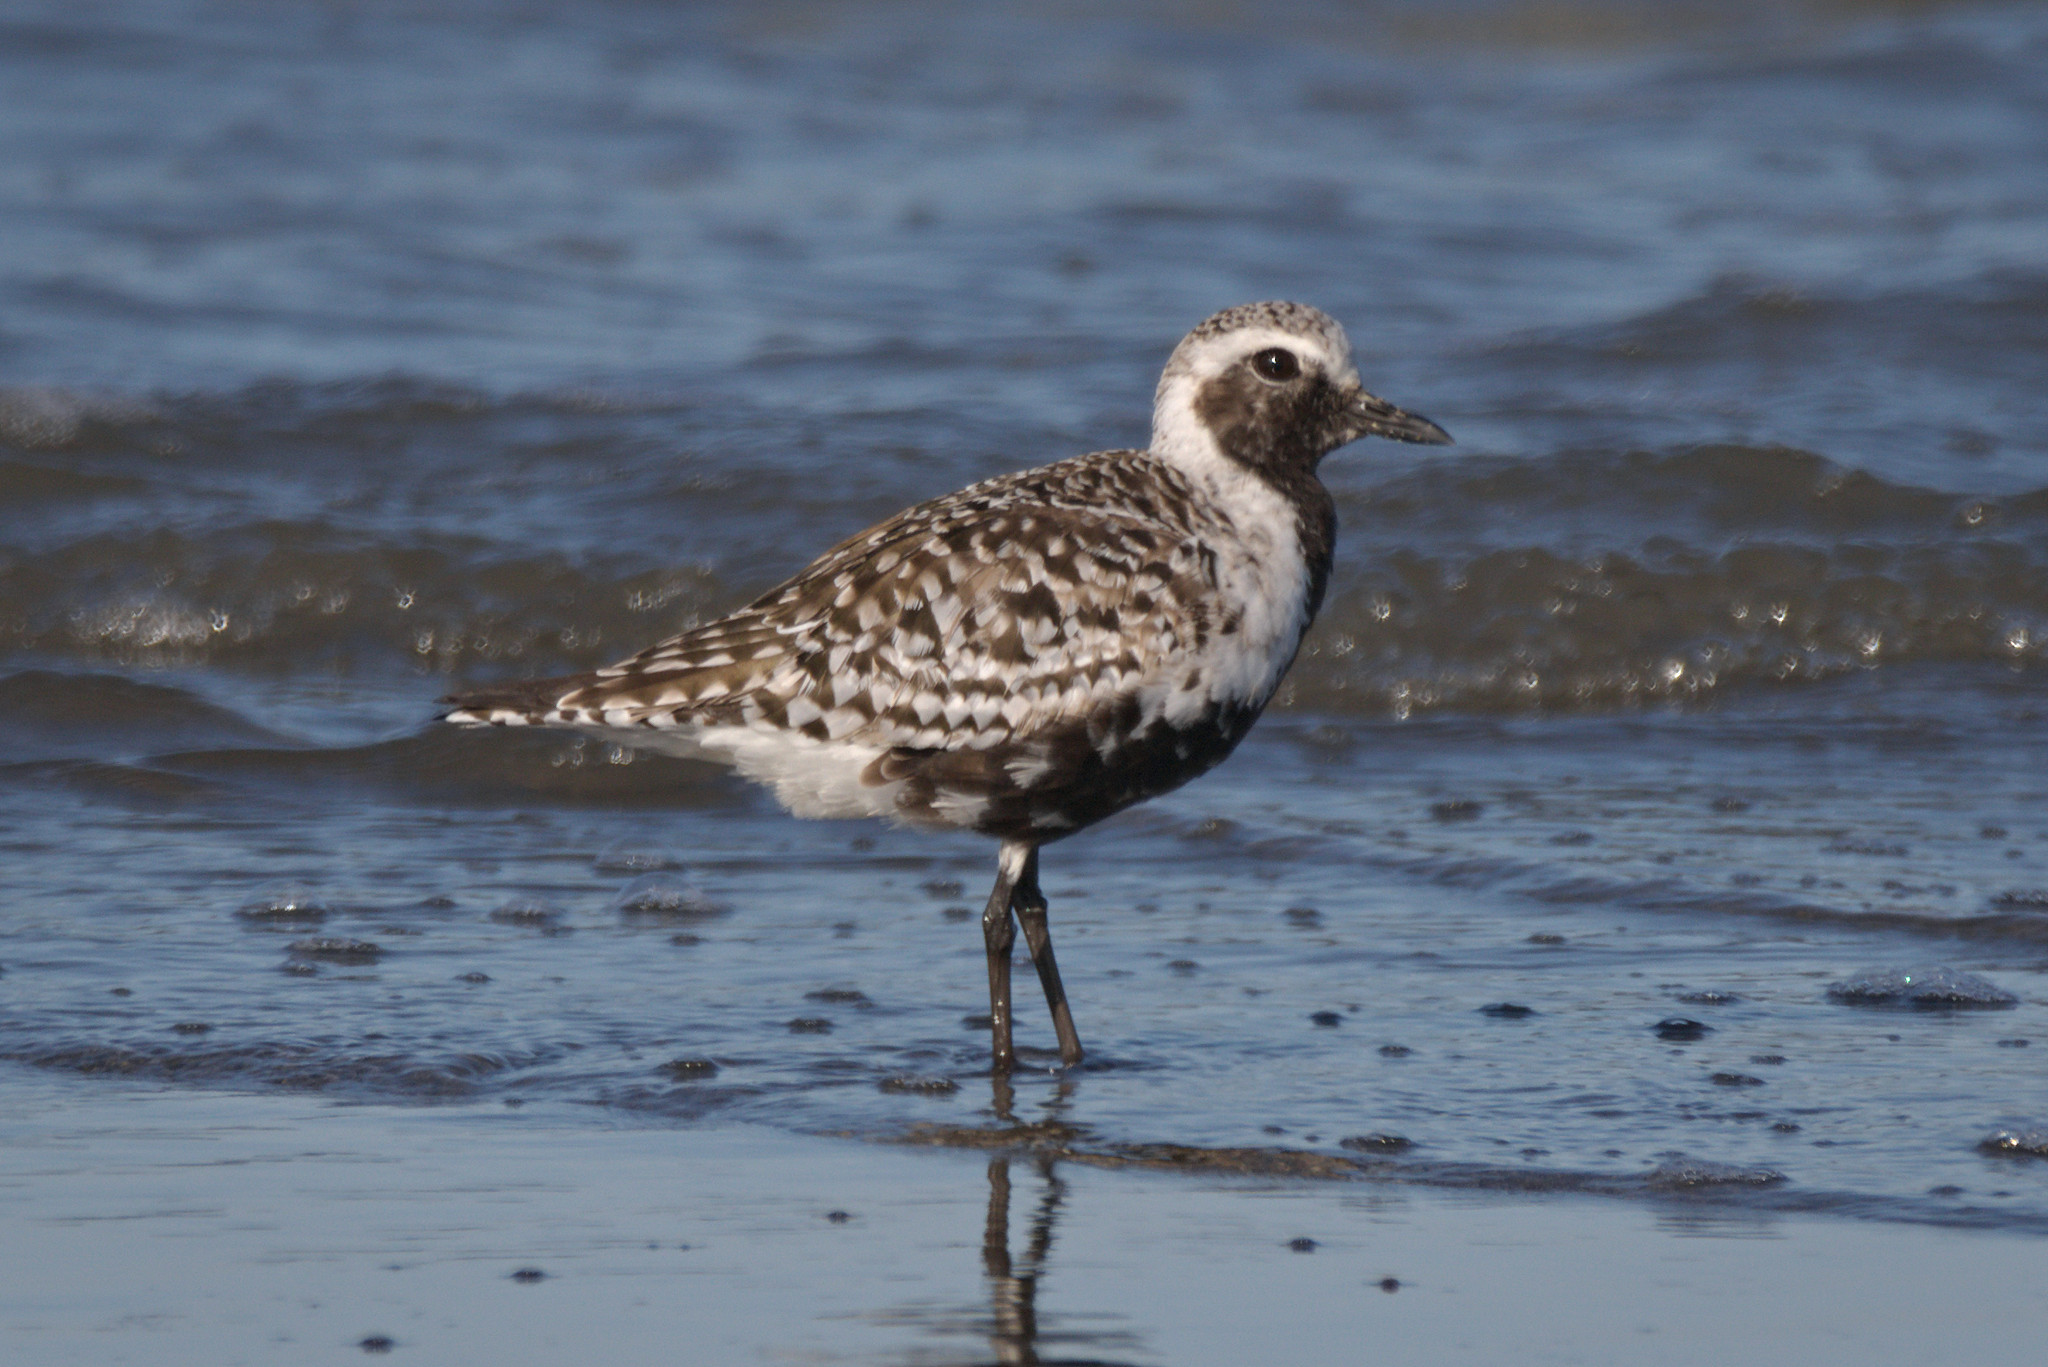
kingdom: Animalia
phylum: Chordata
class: Aves
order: Charadriiformes
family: Charadriidae
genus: Pluvialis
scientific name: Pluvialis squatarola
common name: Grey plover
